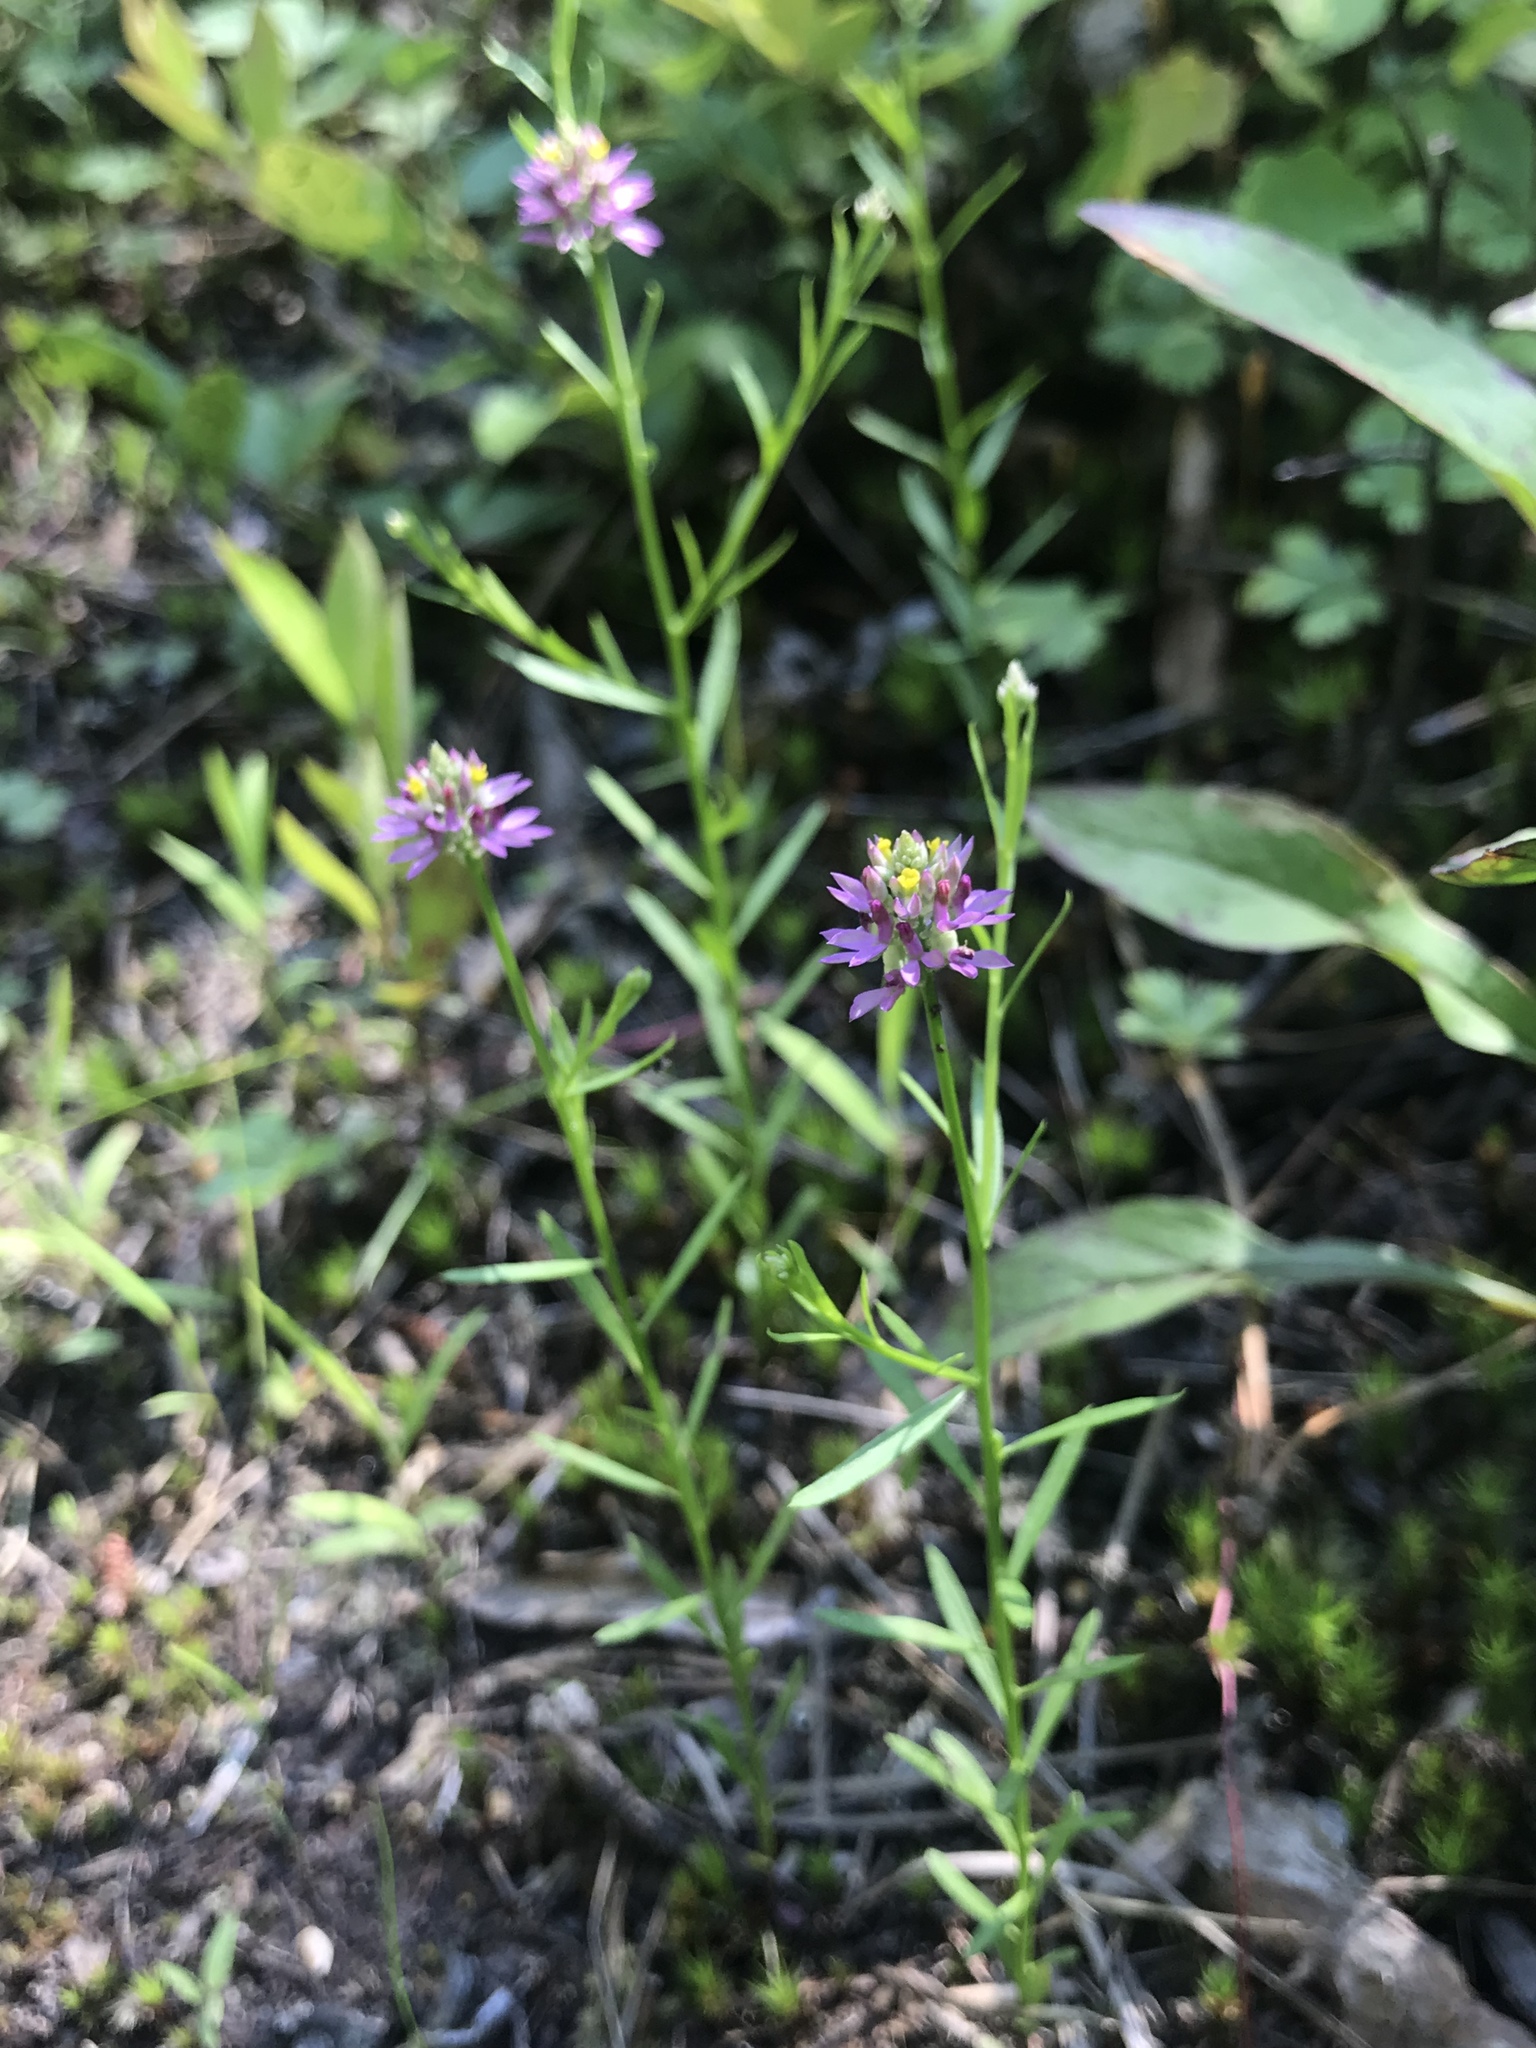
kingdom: Plantae
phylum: Tracheophyta
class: Magnoliopsida
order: Fabales
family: Polygalaceae
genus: Polygala
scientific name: Polygala curtissii
